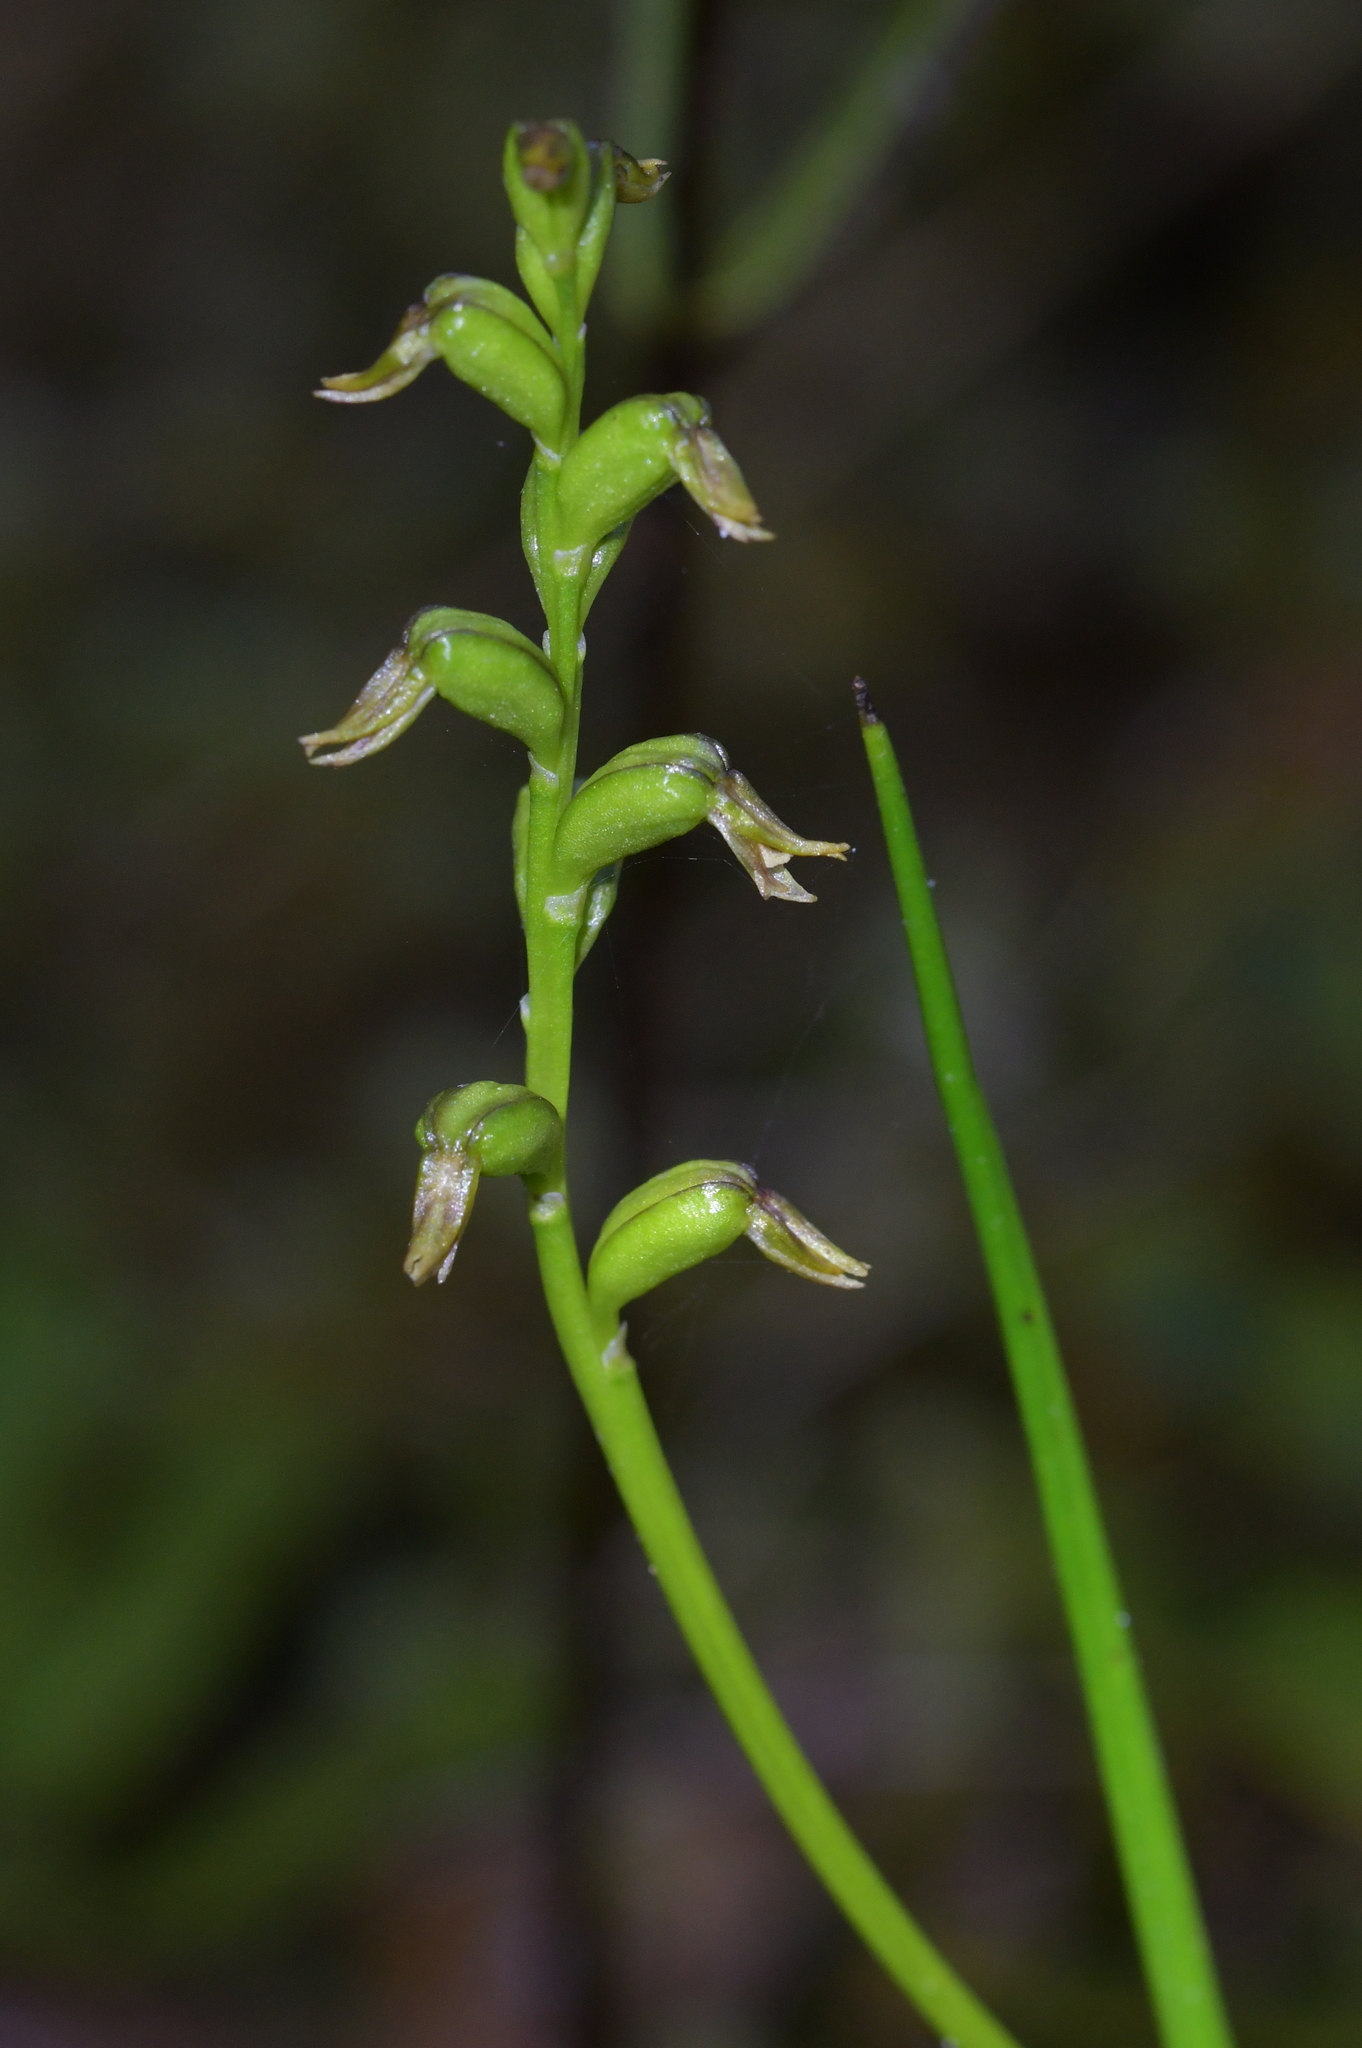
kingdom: Plantae
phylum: Tracheophyta
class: Liliopsida
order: Asparagales
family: Orchidaceae
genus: Prasophyllum
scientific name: Prasophyllum colensoi
